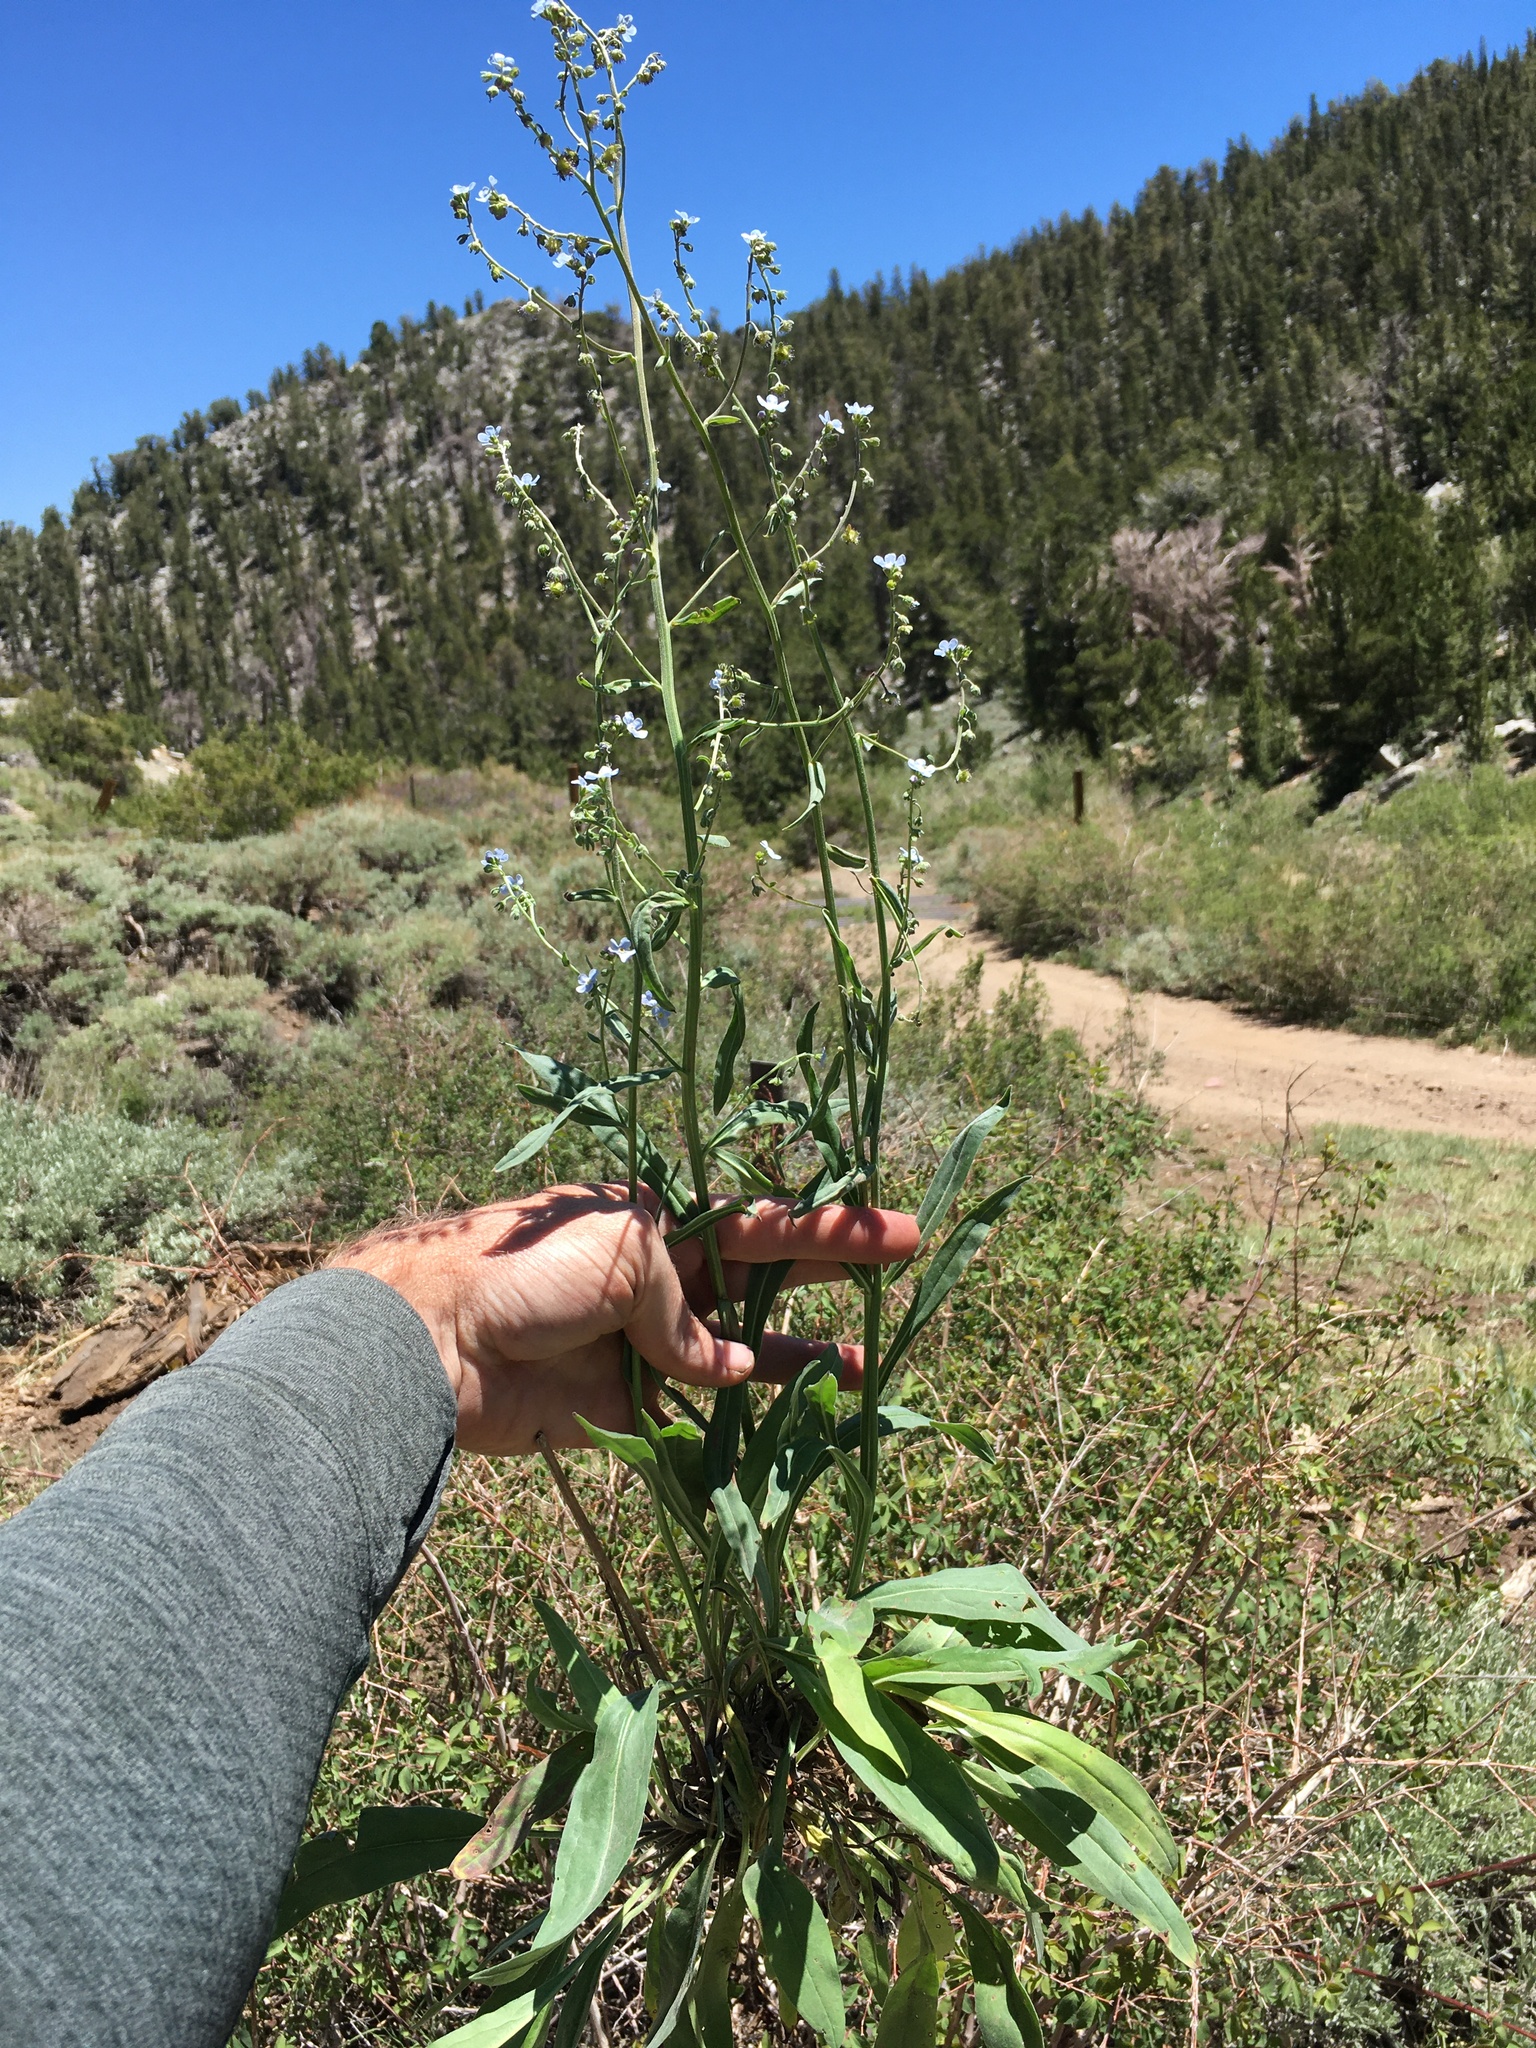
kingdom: Plantae
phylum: Tracheophyta
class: Magnoliopsida
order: Boraginales
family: Boraginaceae
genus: Hackelia
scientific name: Hackelia brevicula
